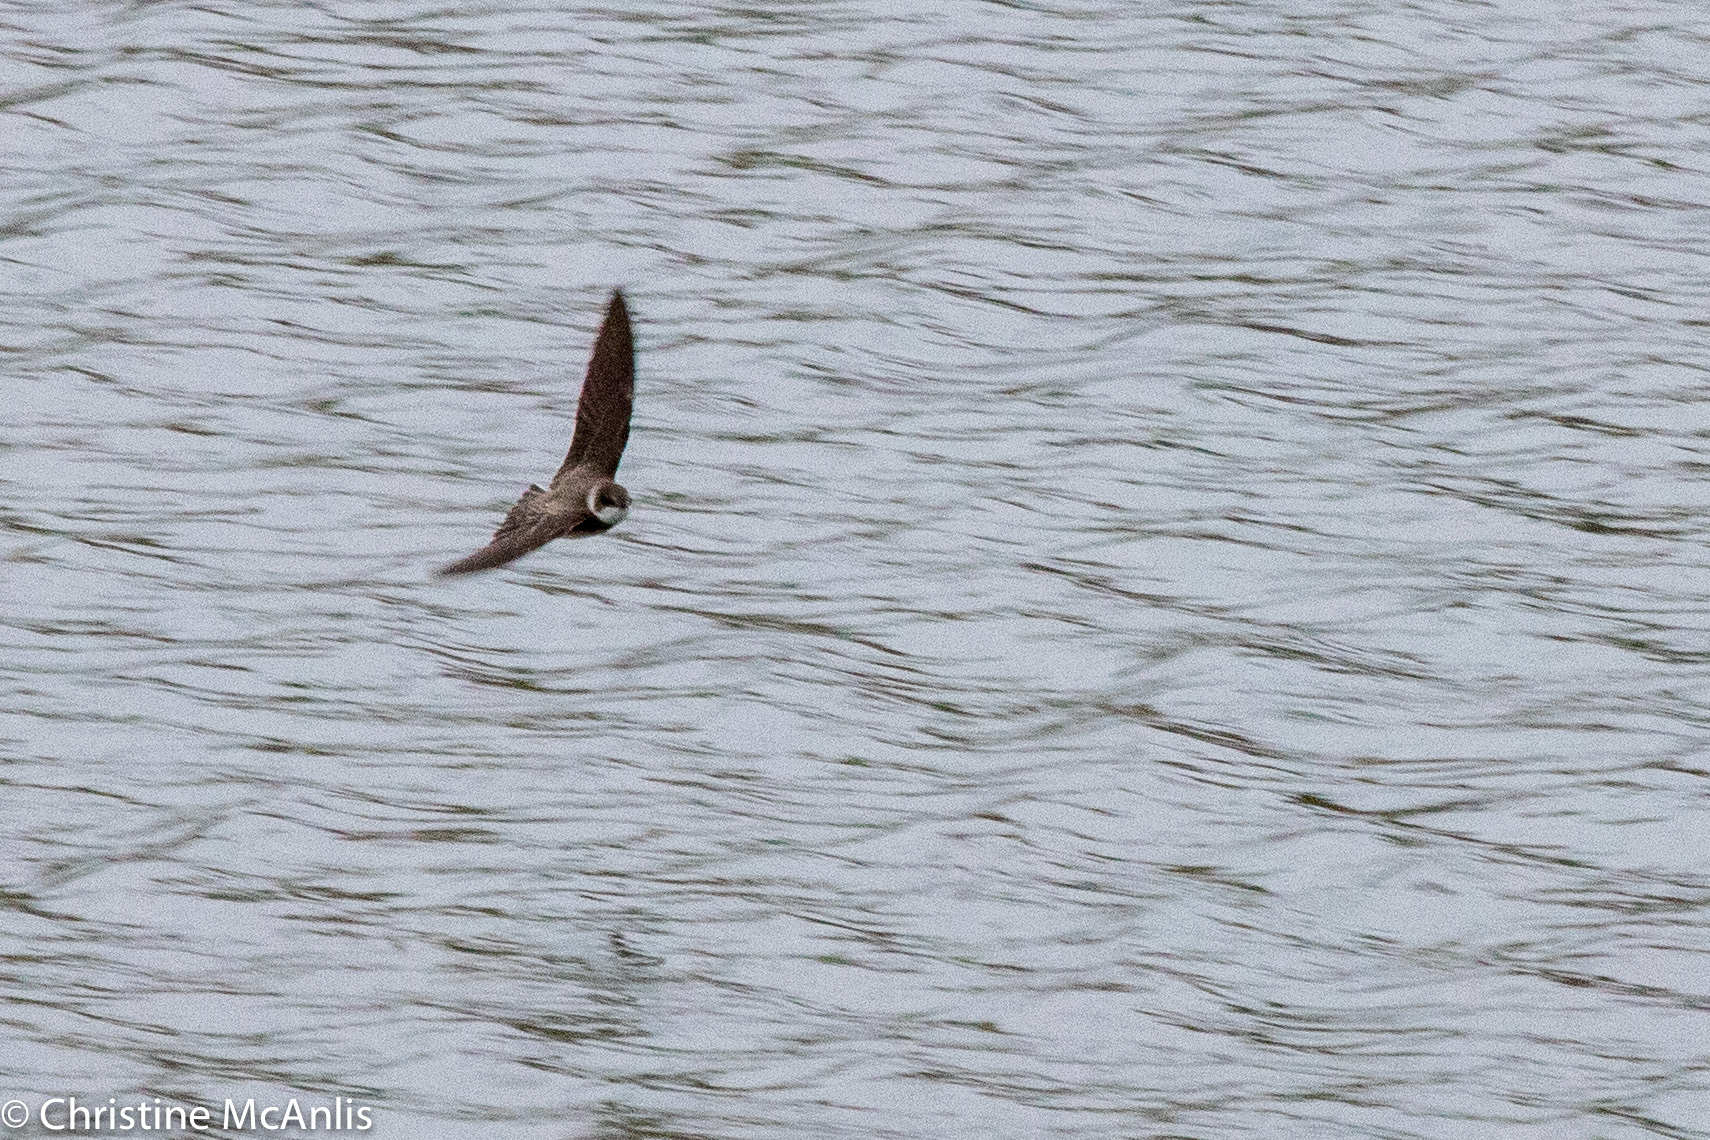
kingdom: Animalia
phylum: Chordata
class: Aves
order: Passeriformes
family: Hirundinidae
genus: Riparia
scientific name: Riparia riparia
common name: Sand martin
